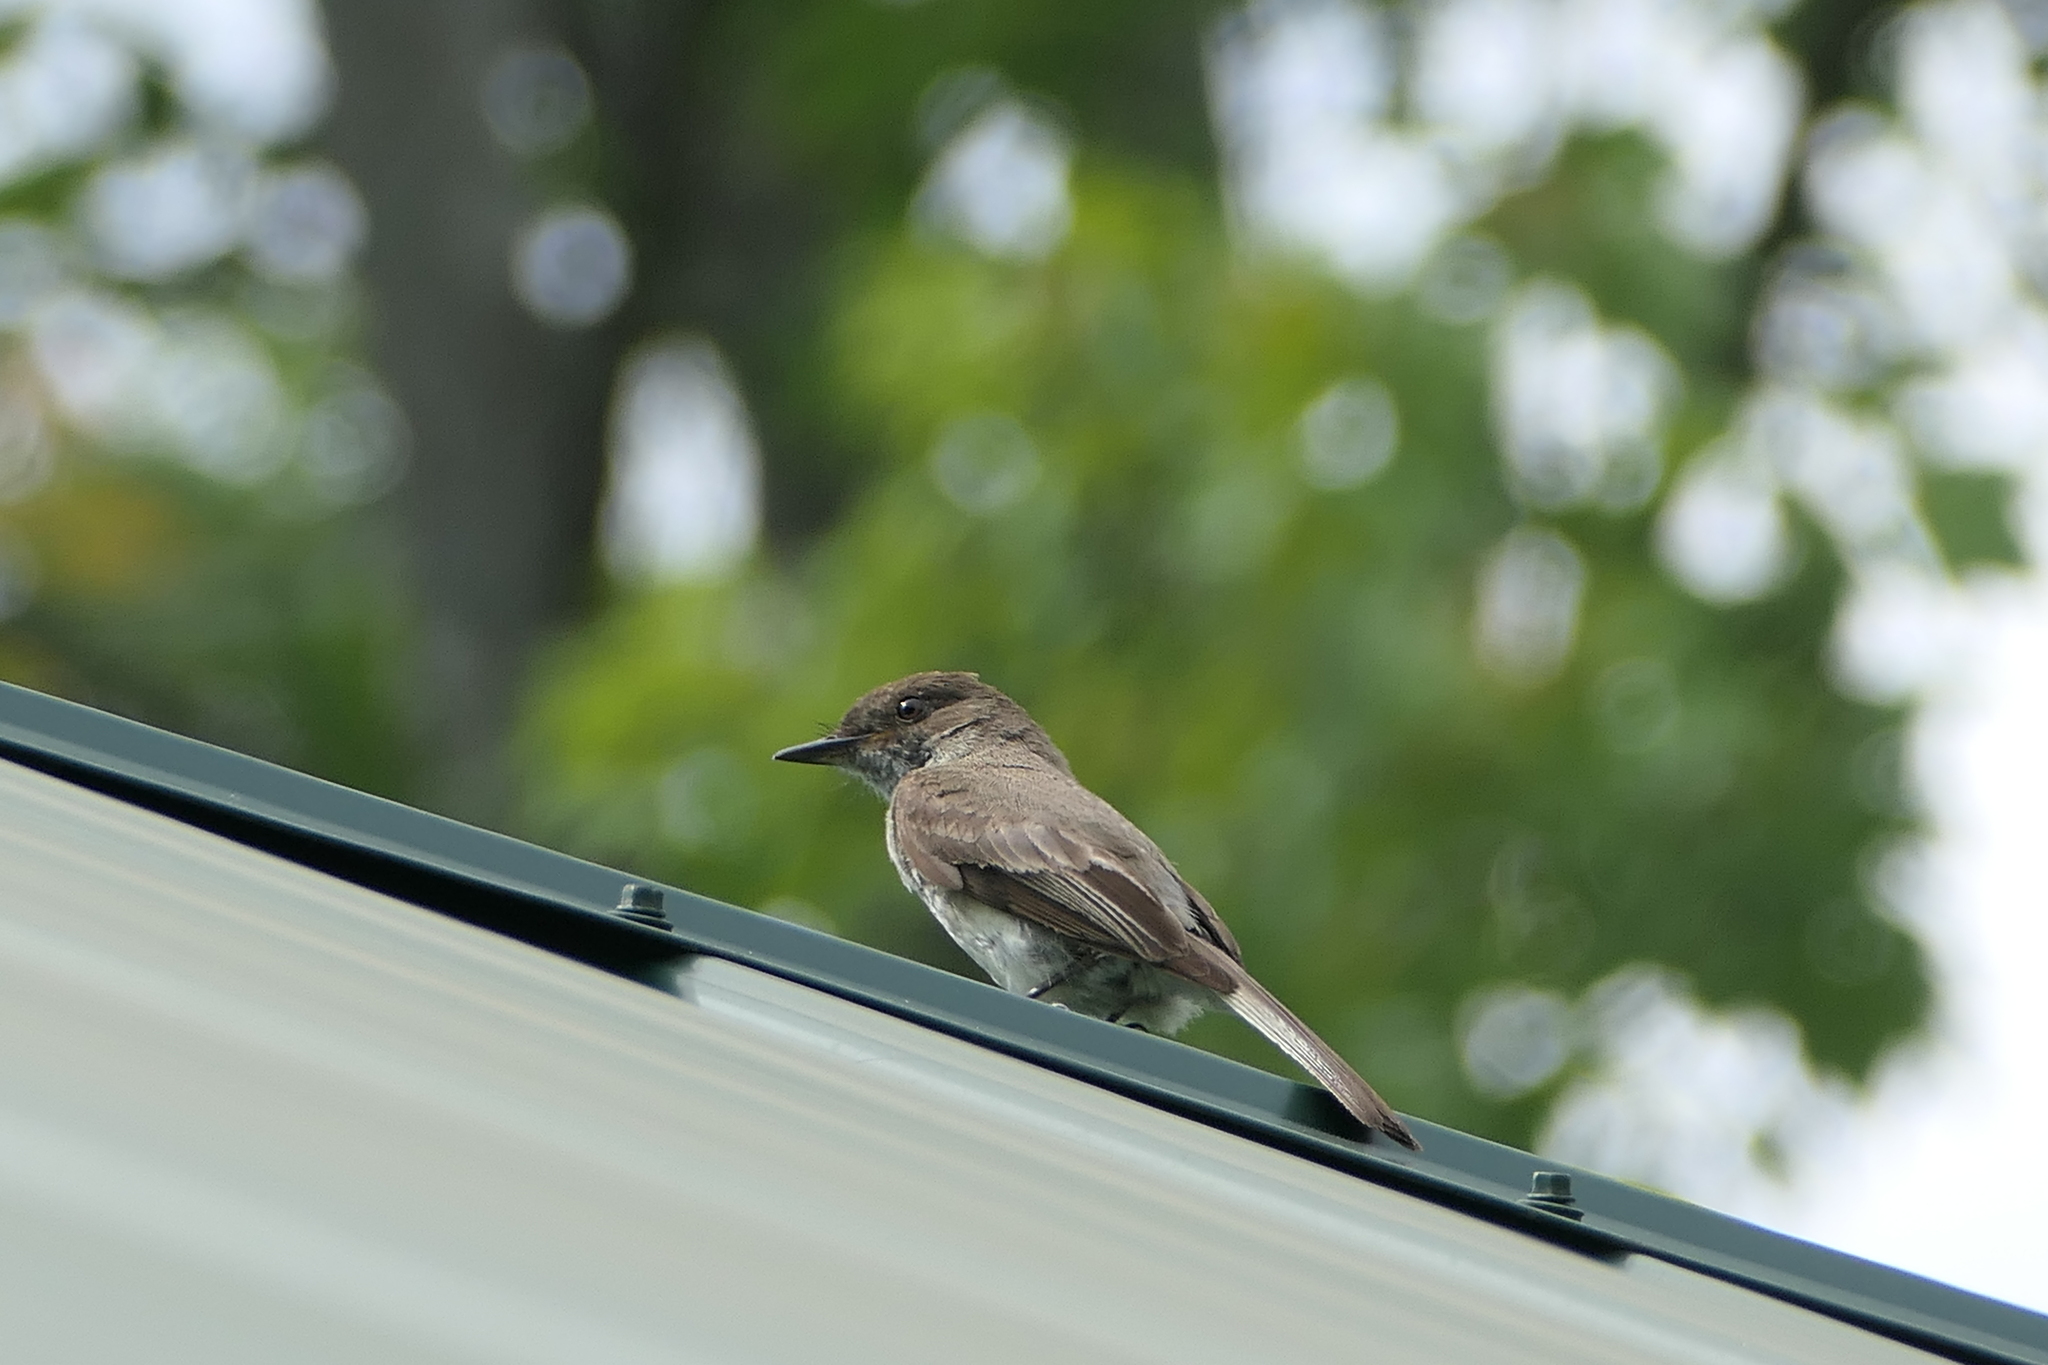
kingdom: Animalia
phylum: Chordata
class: Aves
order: Passeriformes
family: Tyrannidae
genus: Sayornis
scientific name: Sayornis phoebe
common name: Eastern phoebe
